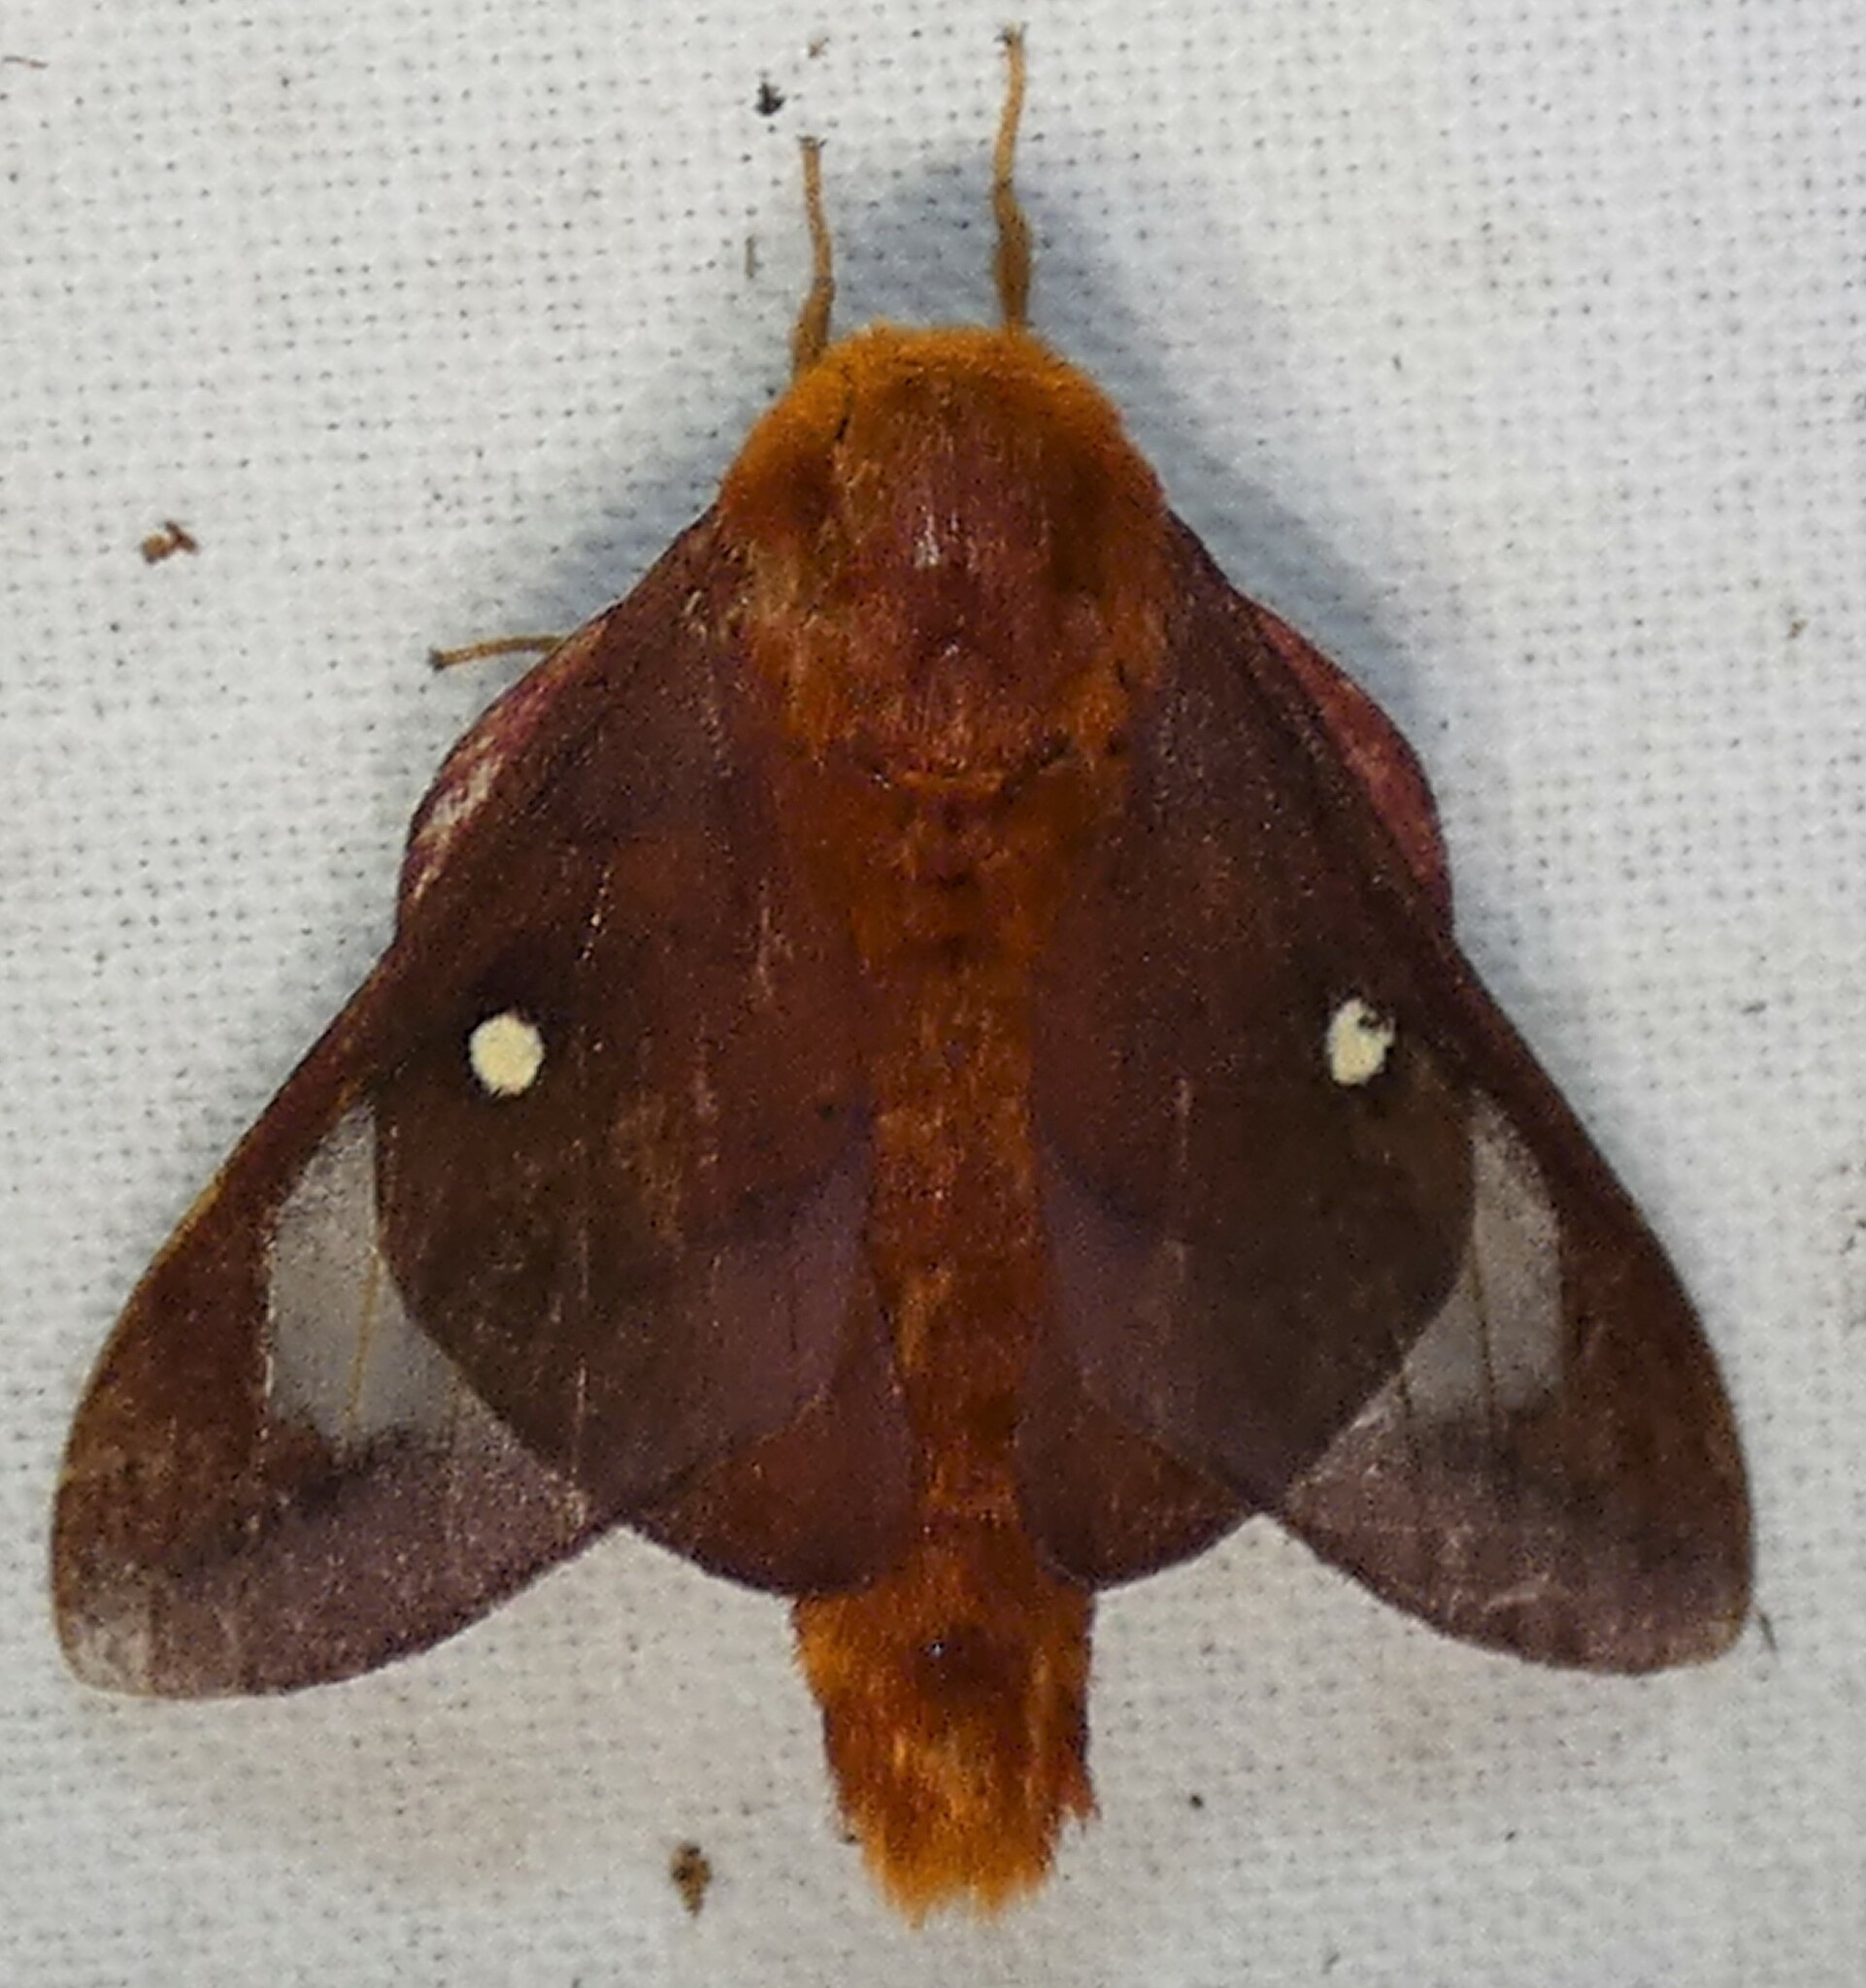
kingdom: Animalia
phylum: Arthropoda
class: Insecta
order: Lepidoptera
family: Saturniidae
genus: Anisota
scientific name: Anisota virginiensis
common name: Pink striped oakworm moth
